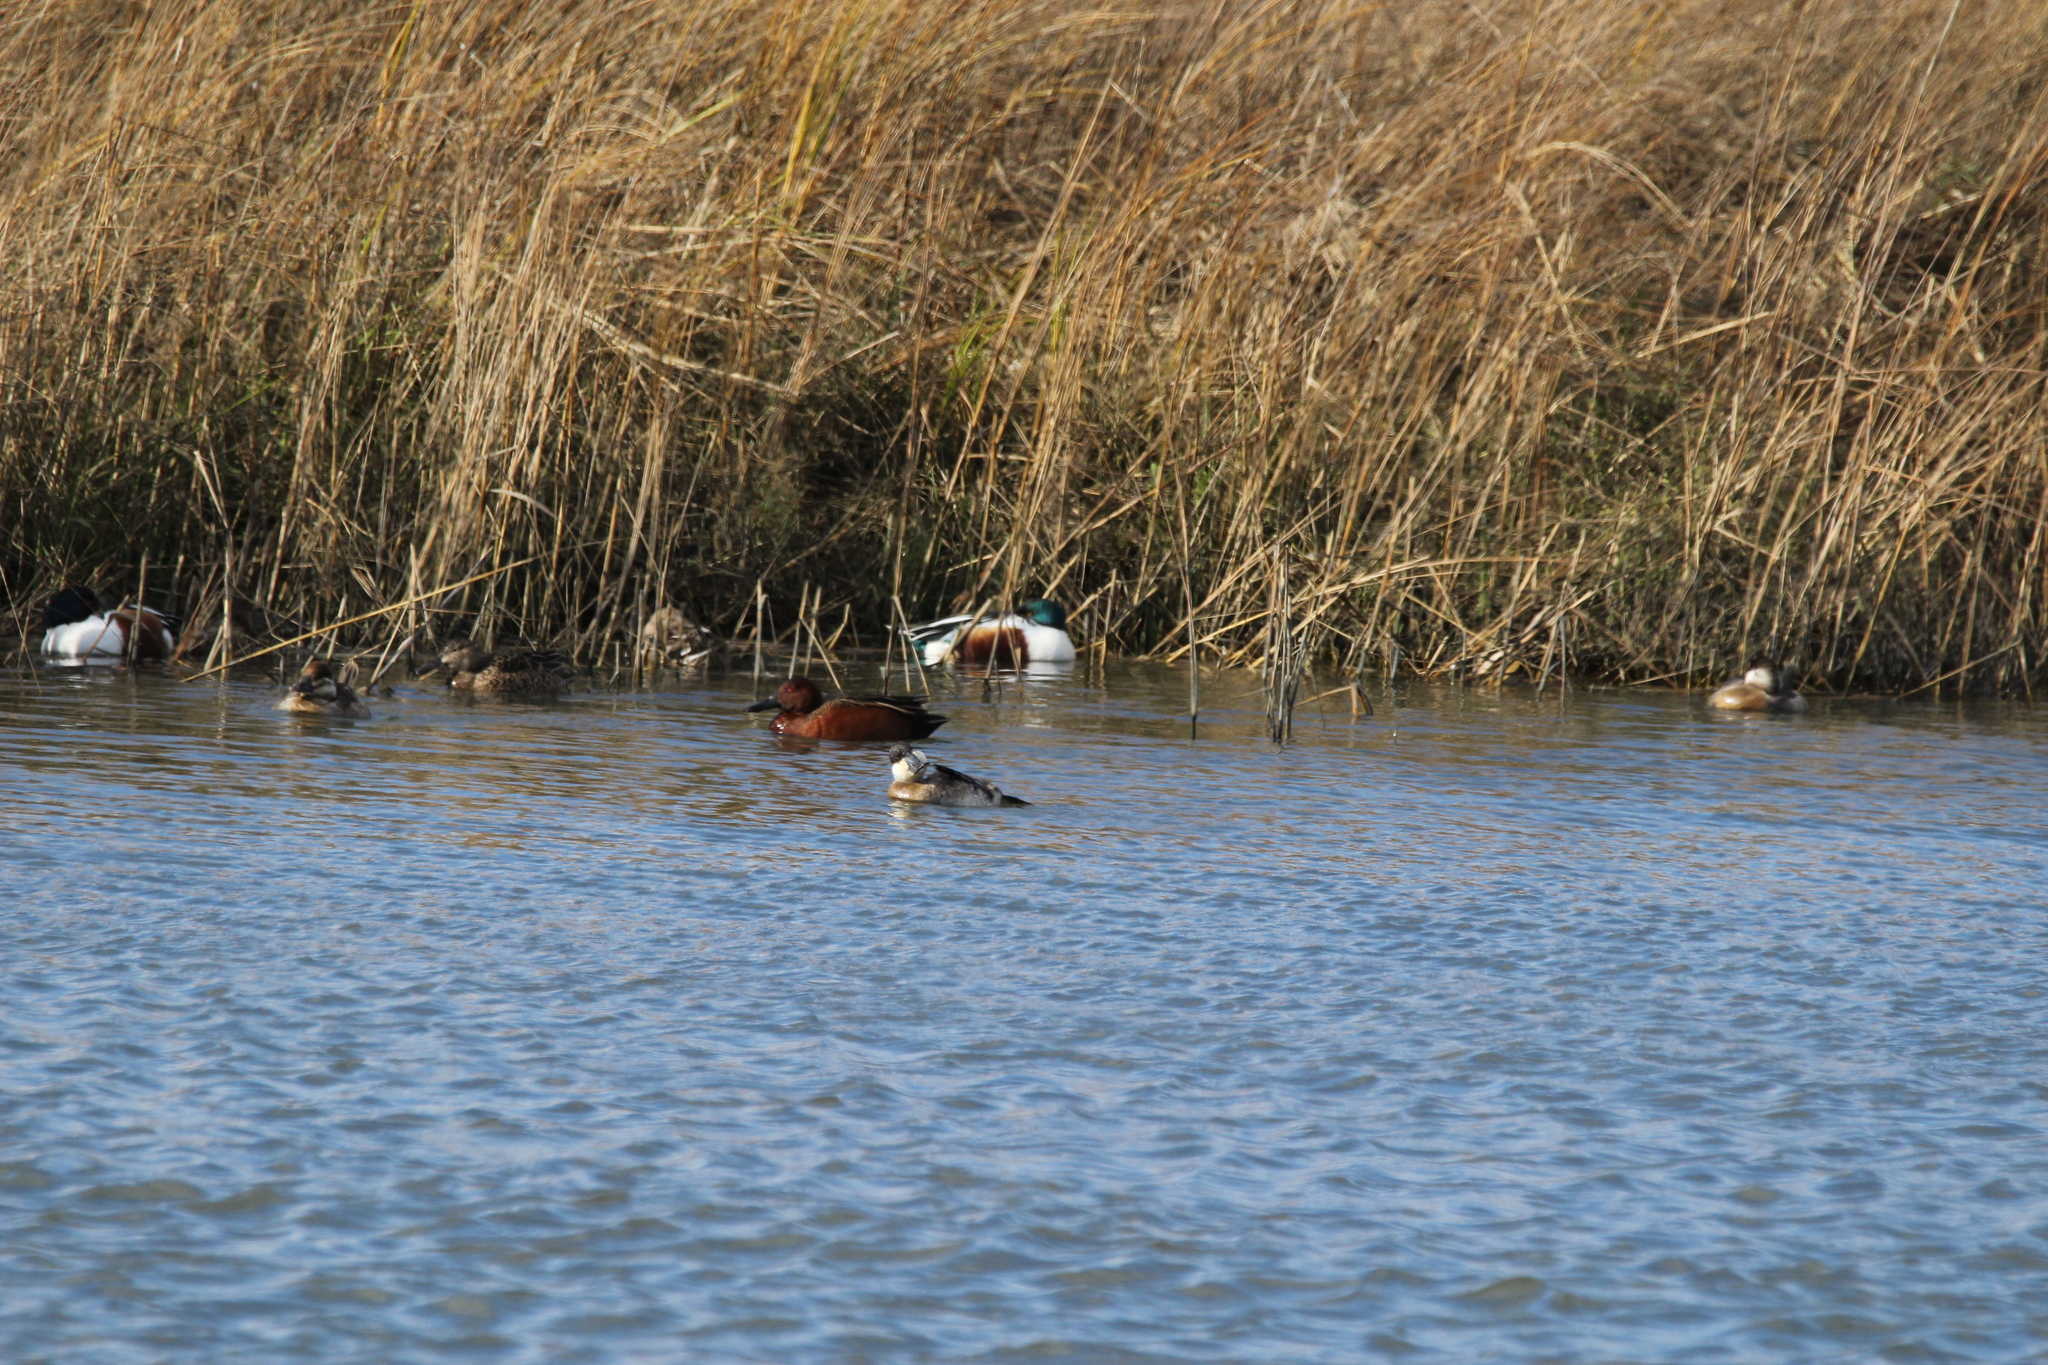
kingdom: Animalia
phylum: Chordata
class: Aves
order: Anseriformes
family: Anatidae
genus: Spatula
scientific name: Spatula cyanoptera
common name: Cinnamon teal
